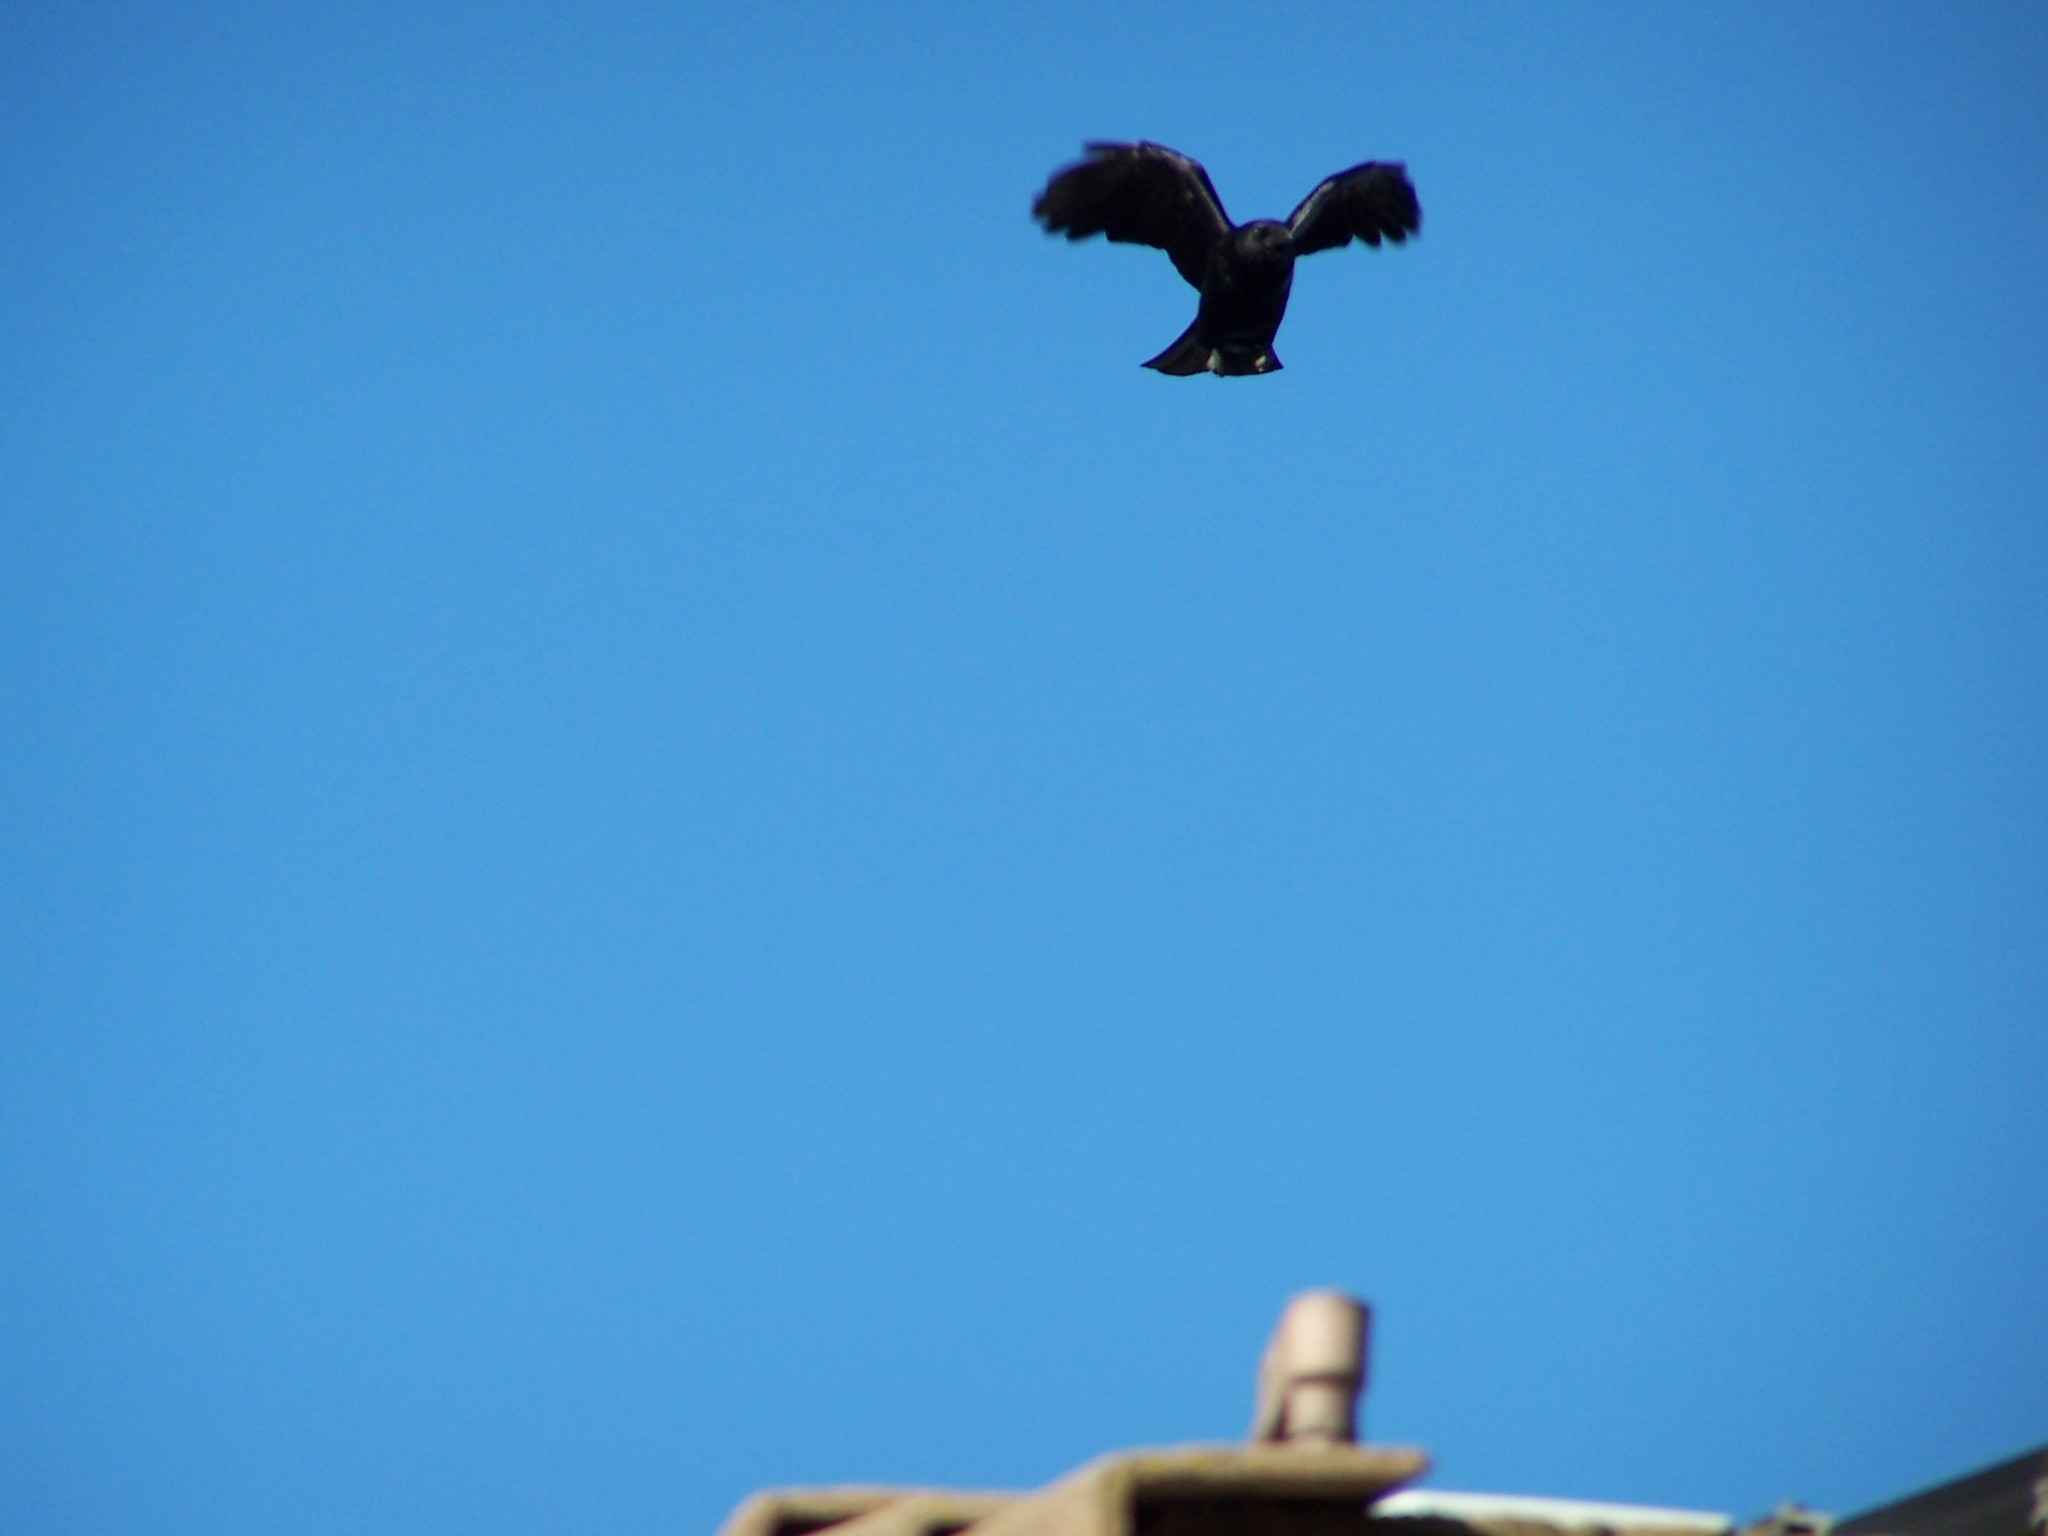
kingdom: Animalia
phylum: Chordata
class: Aves
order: Passeriformes
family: Corvidae
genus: Corvus
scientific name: Corvus brachyrhynchos
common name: American crow
